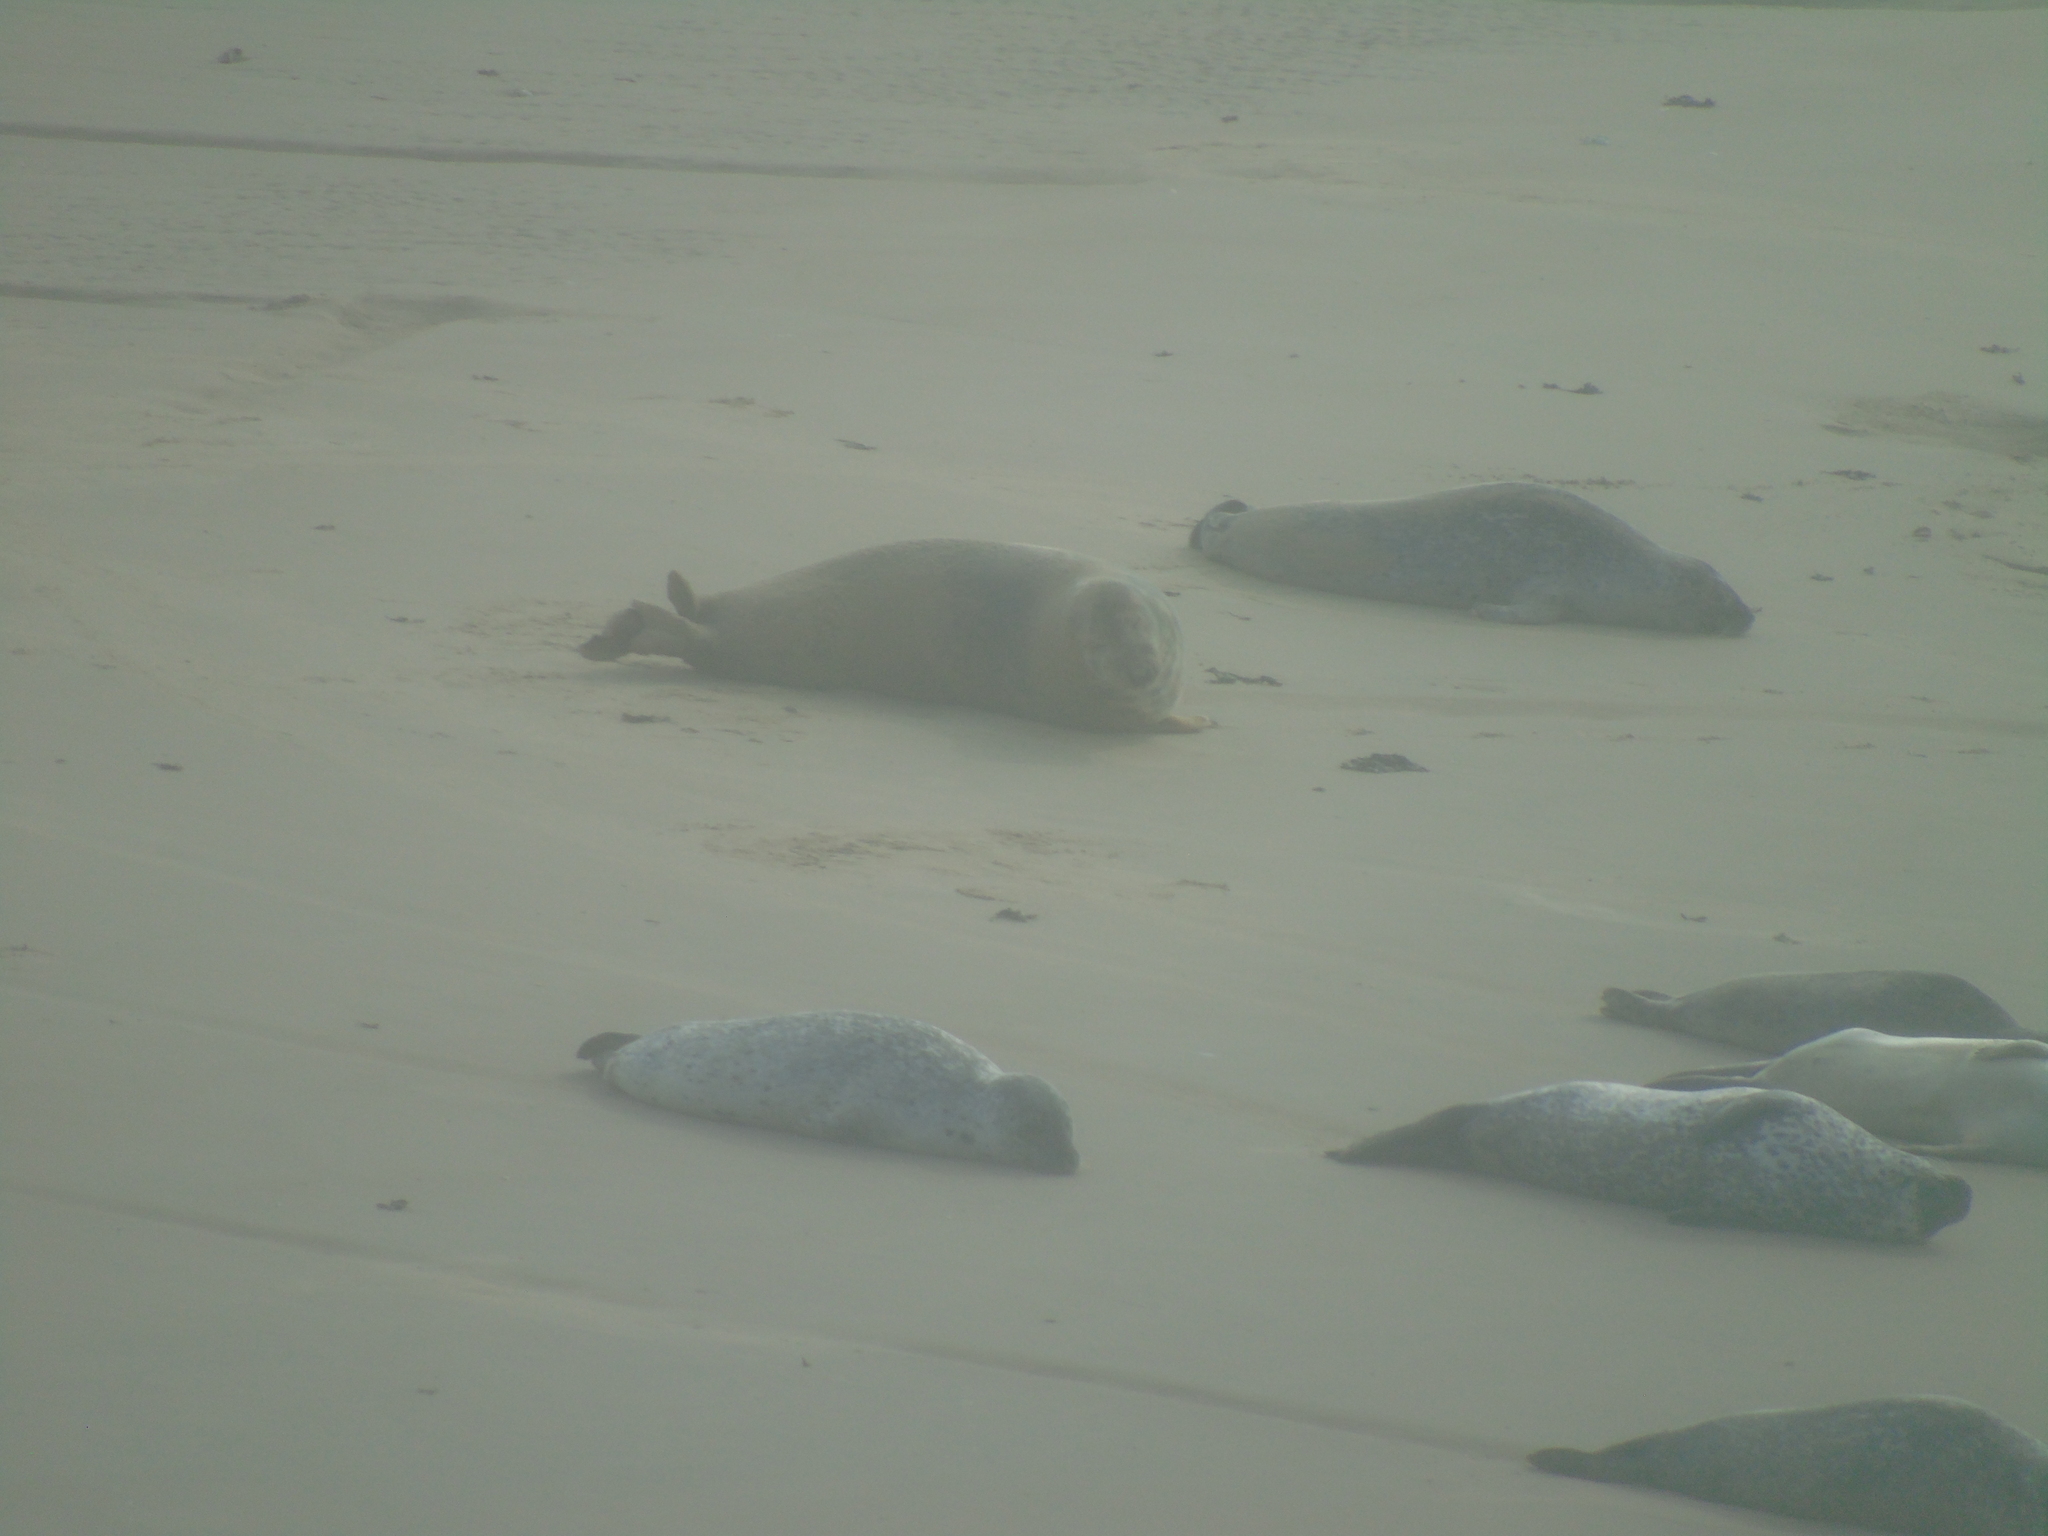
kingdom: Animalia
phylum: Chordata
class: Mammalia
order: Carnivora
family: Phocidae
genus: Phoca
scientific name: Phoca vitulina
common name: Harbor seal
